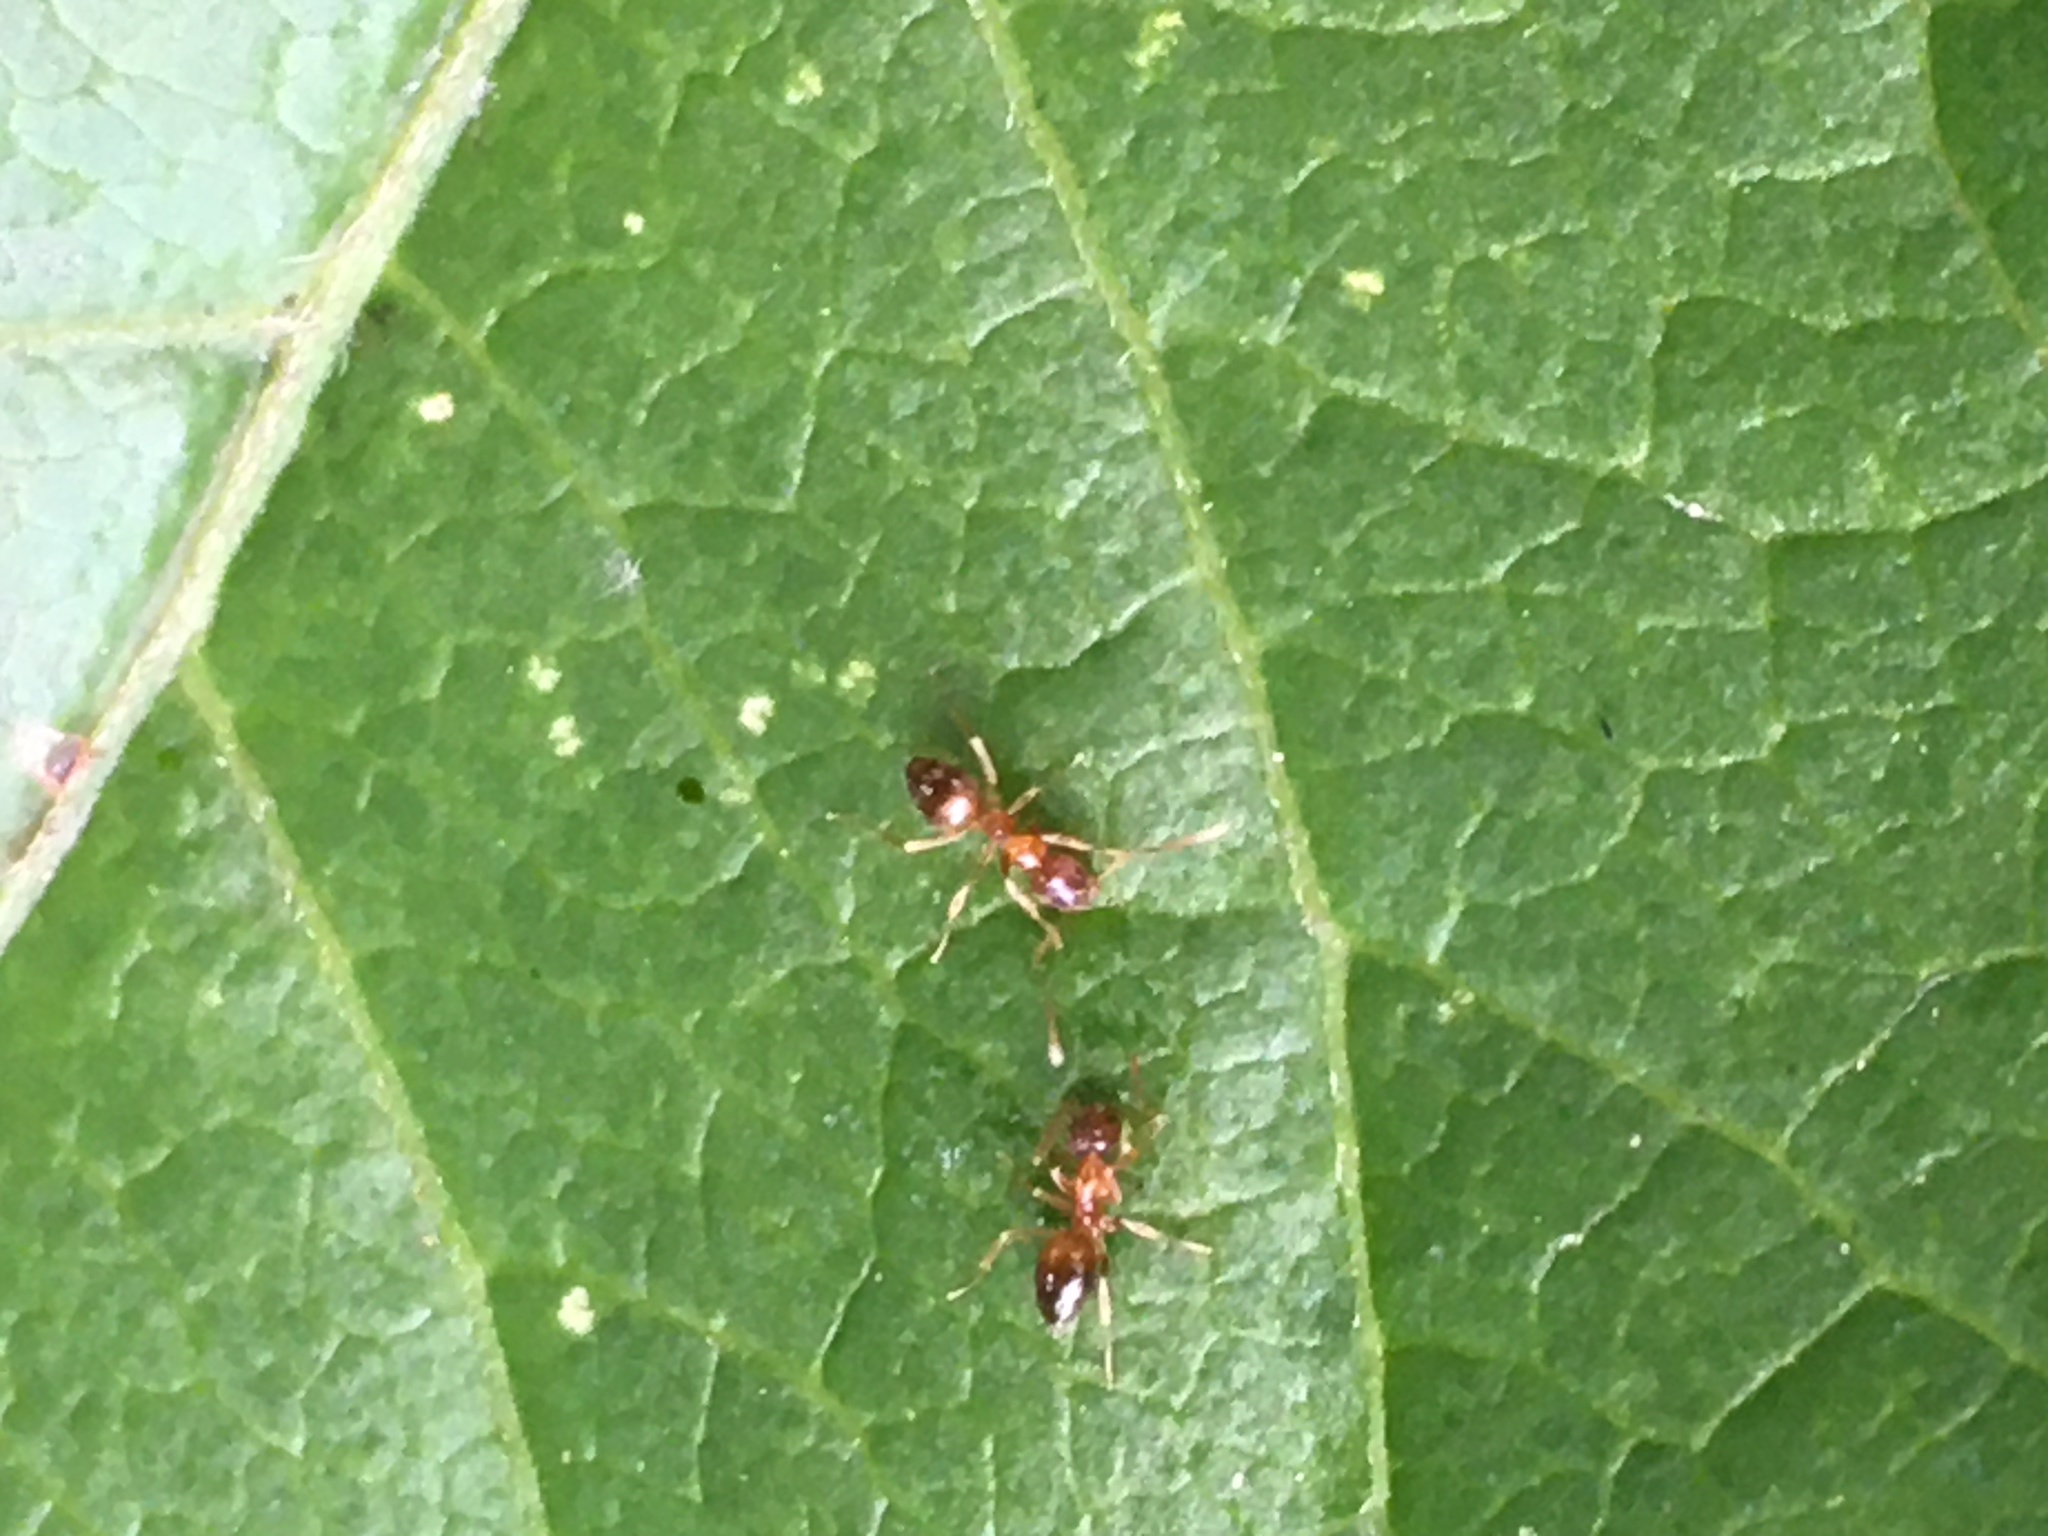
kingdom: Animalia
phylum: Arthropoda
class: Insecta
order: Hymenoptera
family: Formicidae
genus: Paratrechina
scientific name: Paratrechina flavipes
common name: Eastern asian formicine ant
